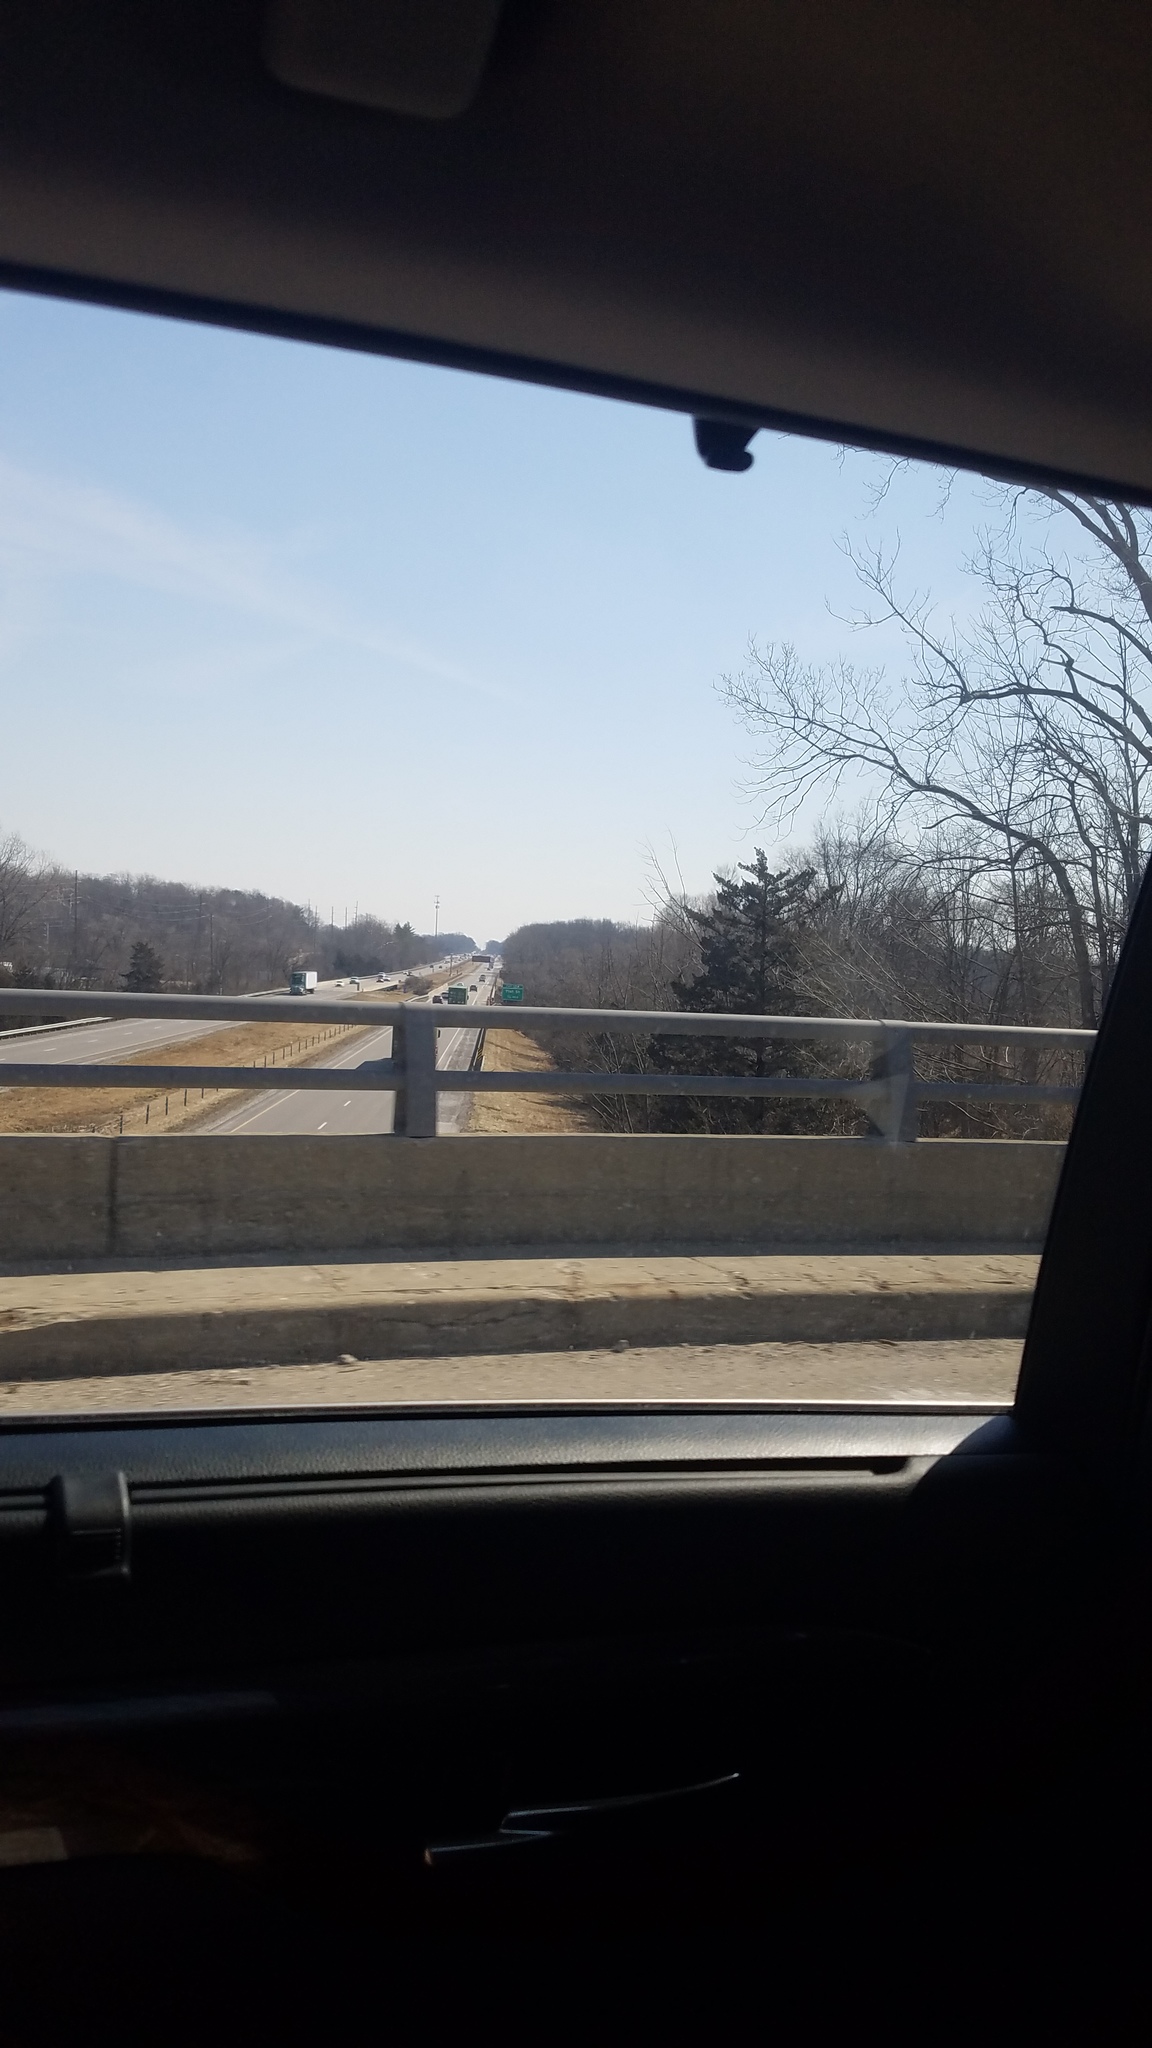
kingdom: Plantae
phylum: Tracheophyta
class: Pinopsida
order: Pinales
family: Pinaceae
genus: Pinus
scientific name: Pinus strobus
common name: Weymouth pine
